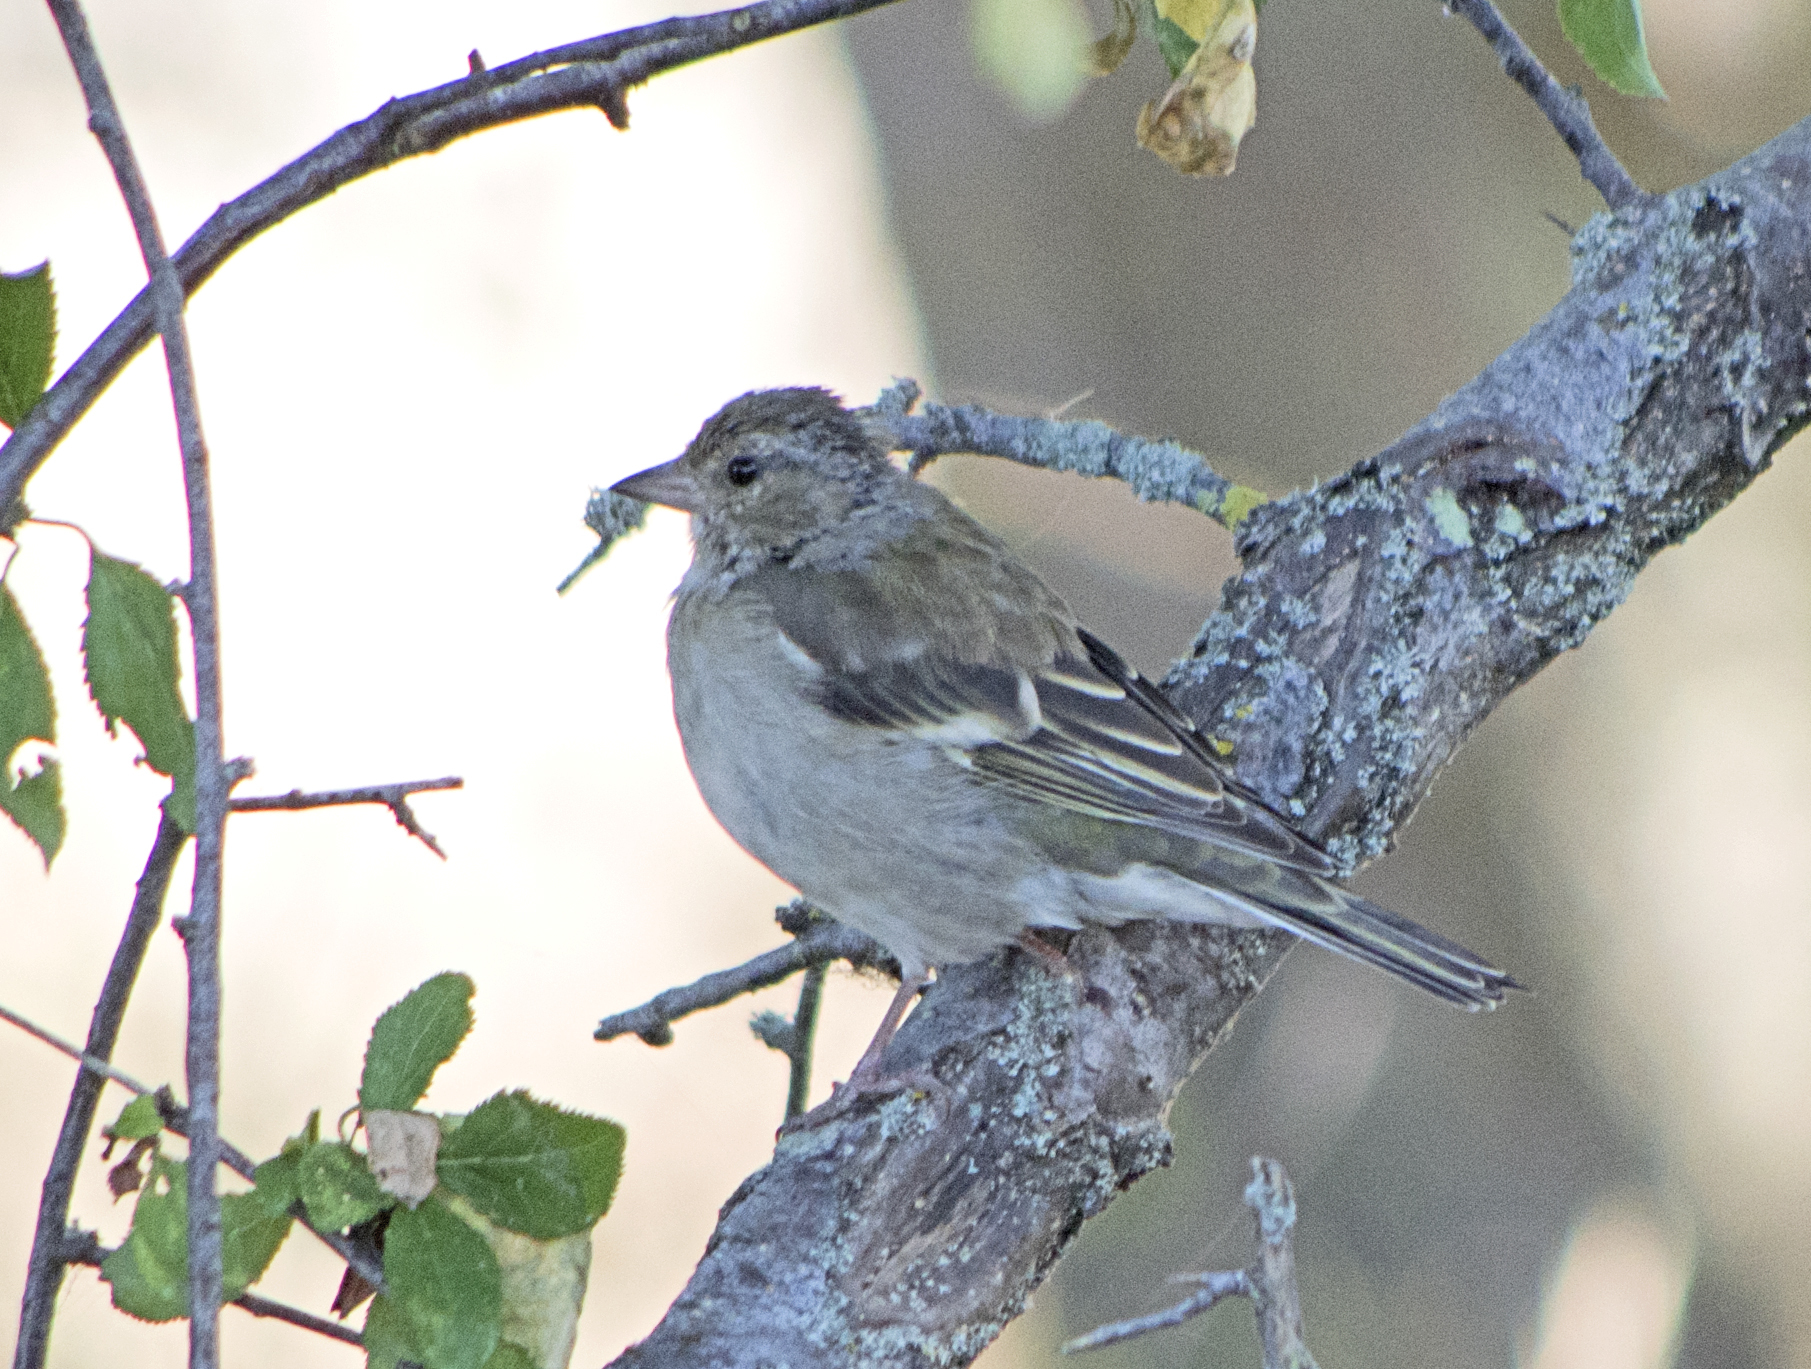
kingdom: Animalia
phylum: Chordata
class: Aves
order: Passeriformes
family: Fringillidae
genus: Fringilla
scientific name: Fringilla coelebs
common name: Common chaffinch
